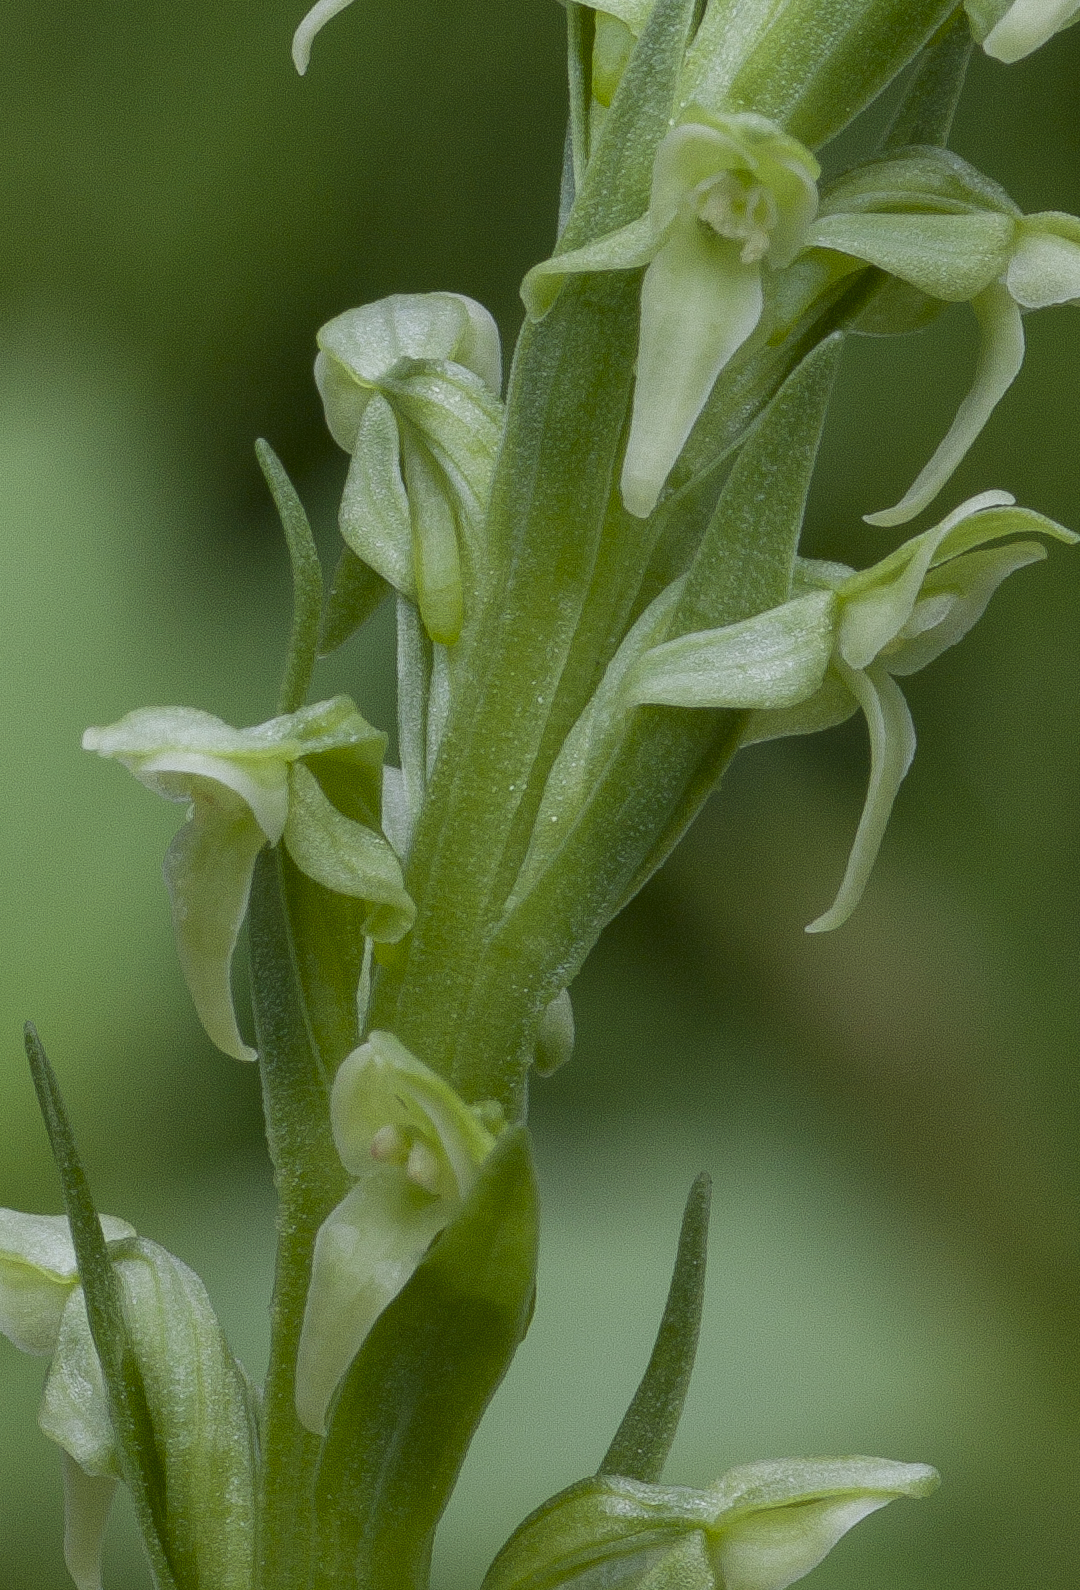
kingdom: Plantae
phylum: Tracheophyta
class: Liliopsida
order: Asparagales
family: Orchidaceae
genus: Platanthera
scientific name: Platanthera huronensis
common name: Fragrant green orchid
